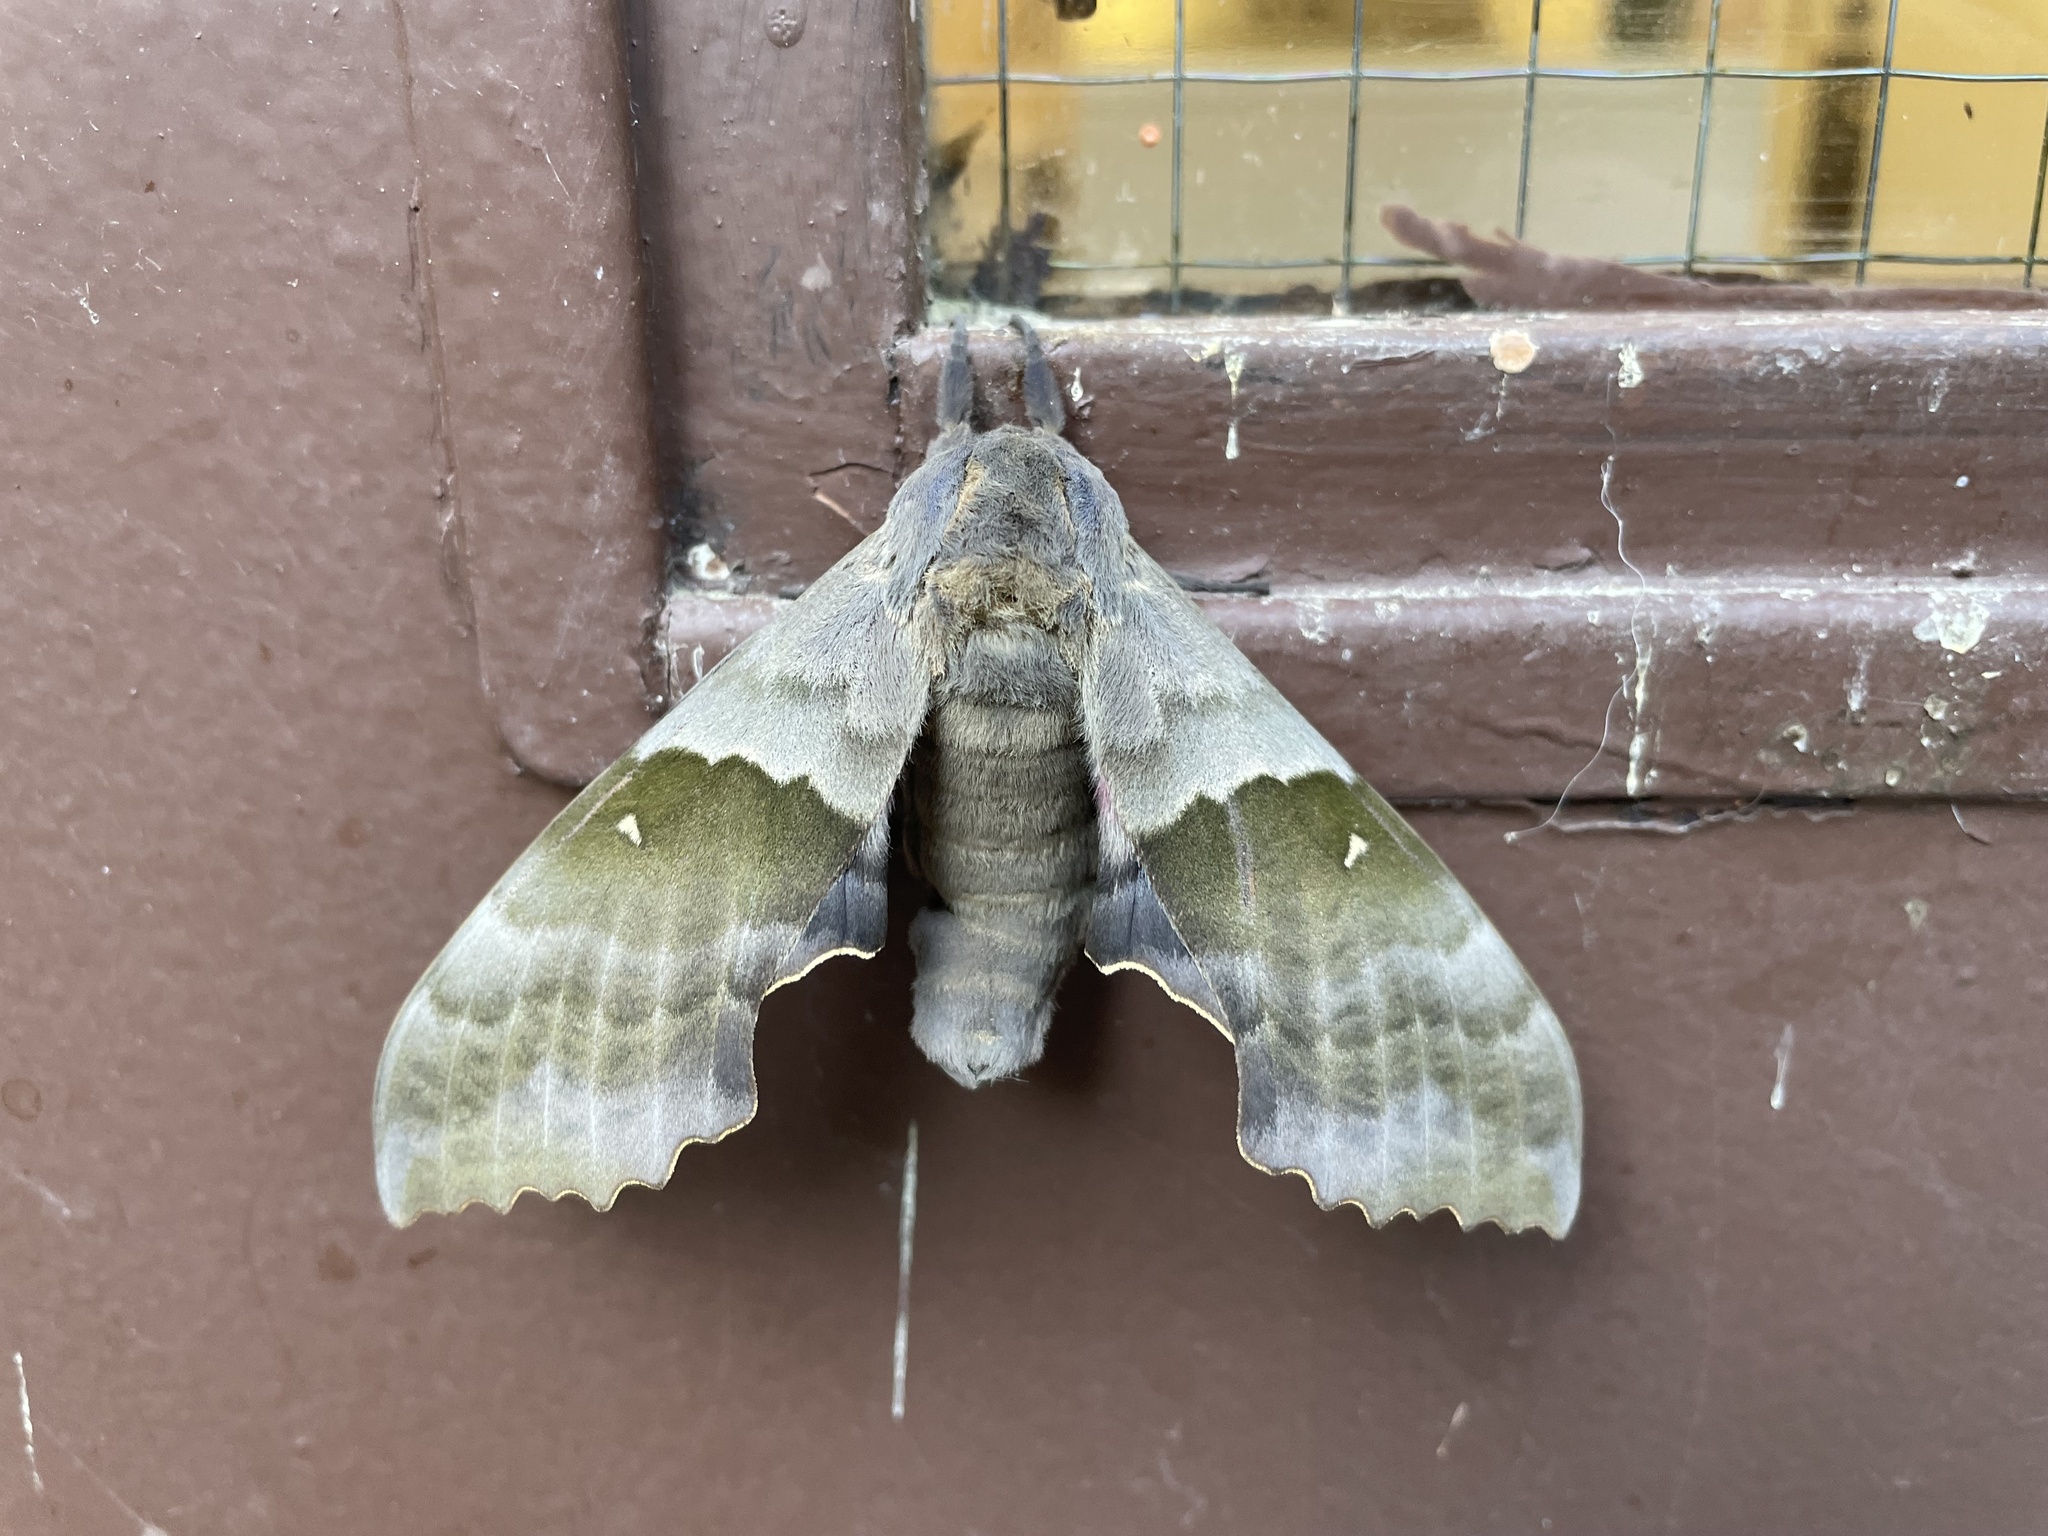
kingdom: Animalia
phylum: Arthropoda
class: Insecta
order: Lepidoptera
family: Sphingidae
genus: Pachysphinx
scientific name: Pachysphinx modesta
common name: Big poplar sphinx
